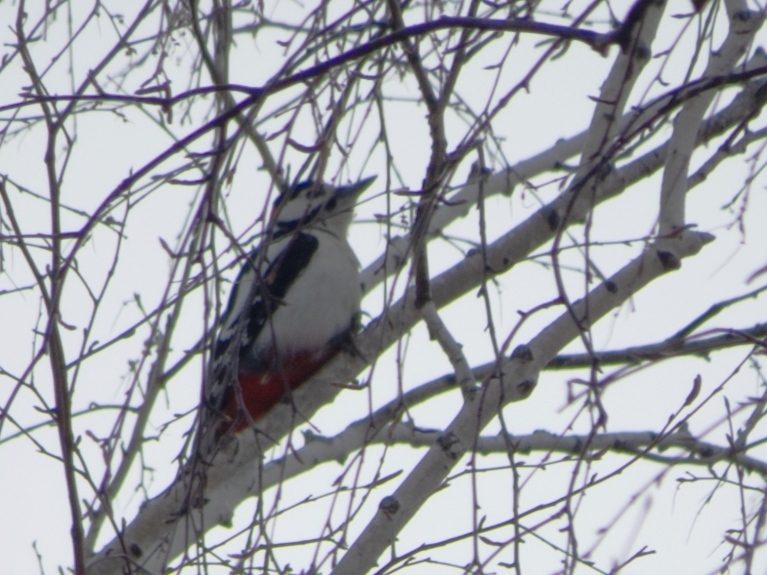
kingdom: Animalia
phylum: Chordata
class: Aves
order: Piciformes
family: Picidae
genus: Dendrocopos
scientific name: Dendrocopos major
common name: Great spotted woodpecker
